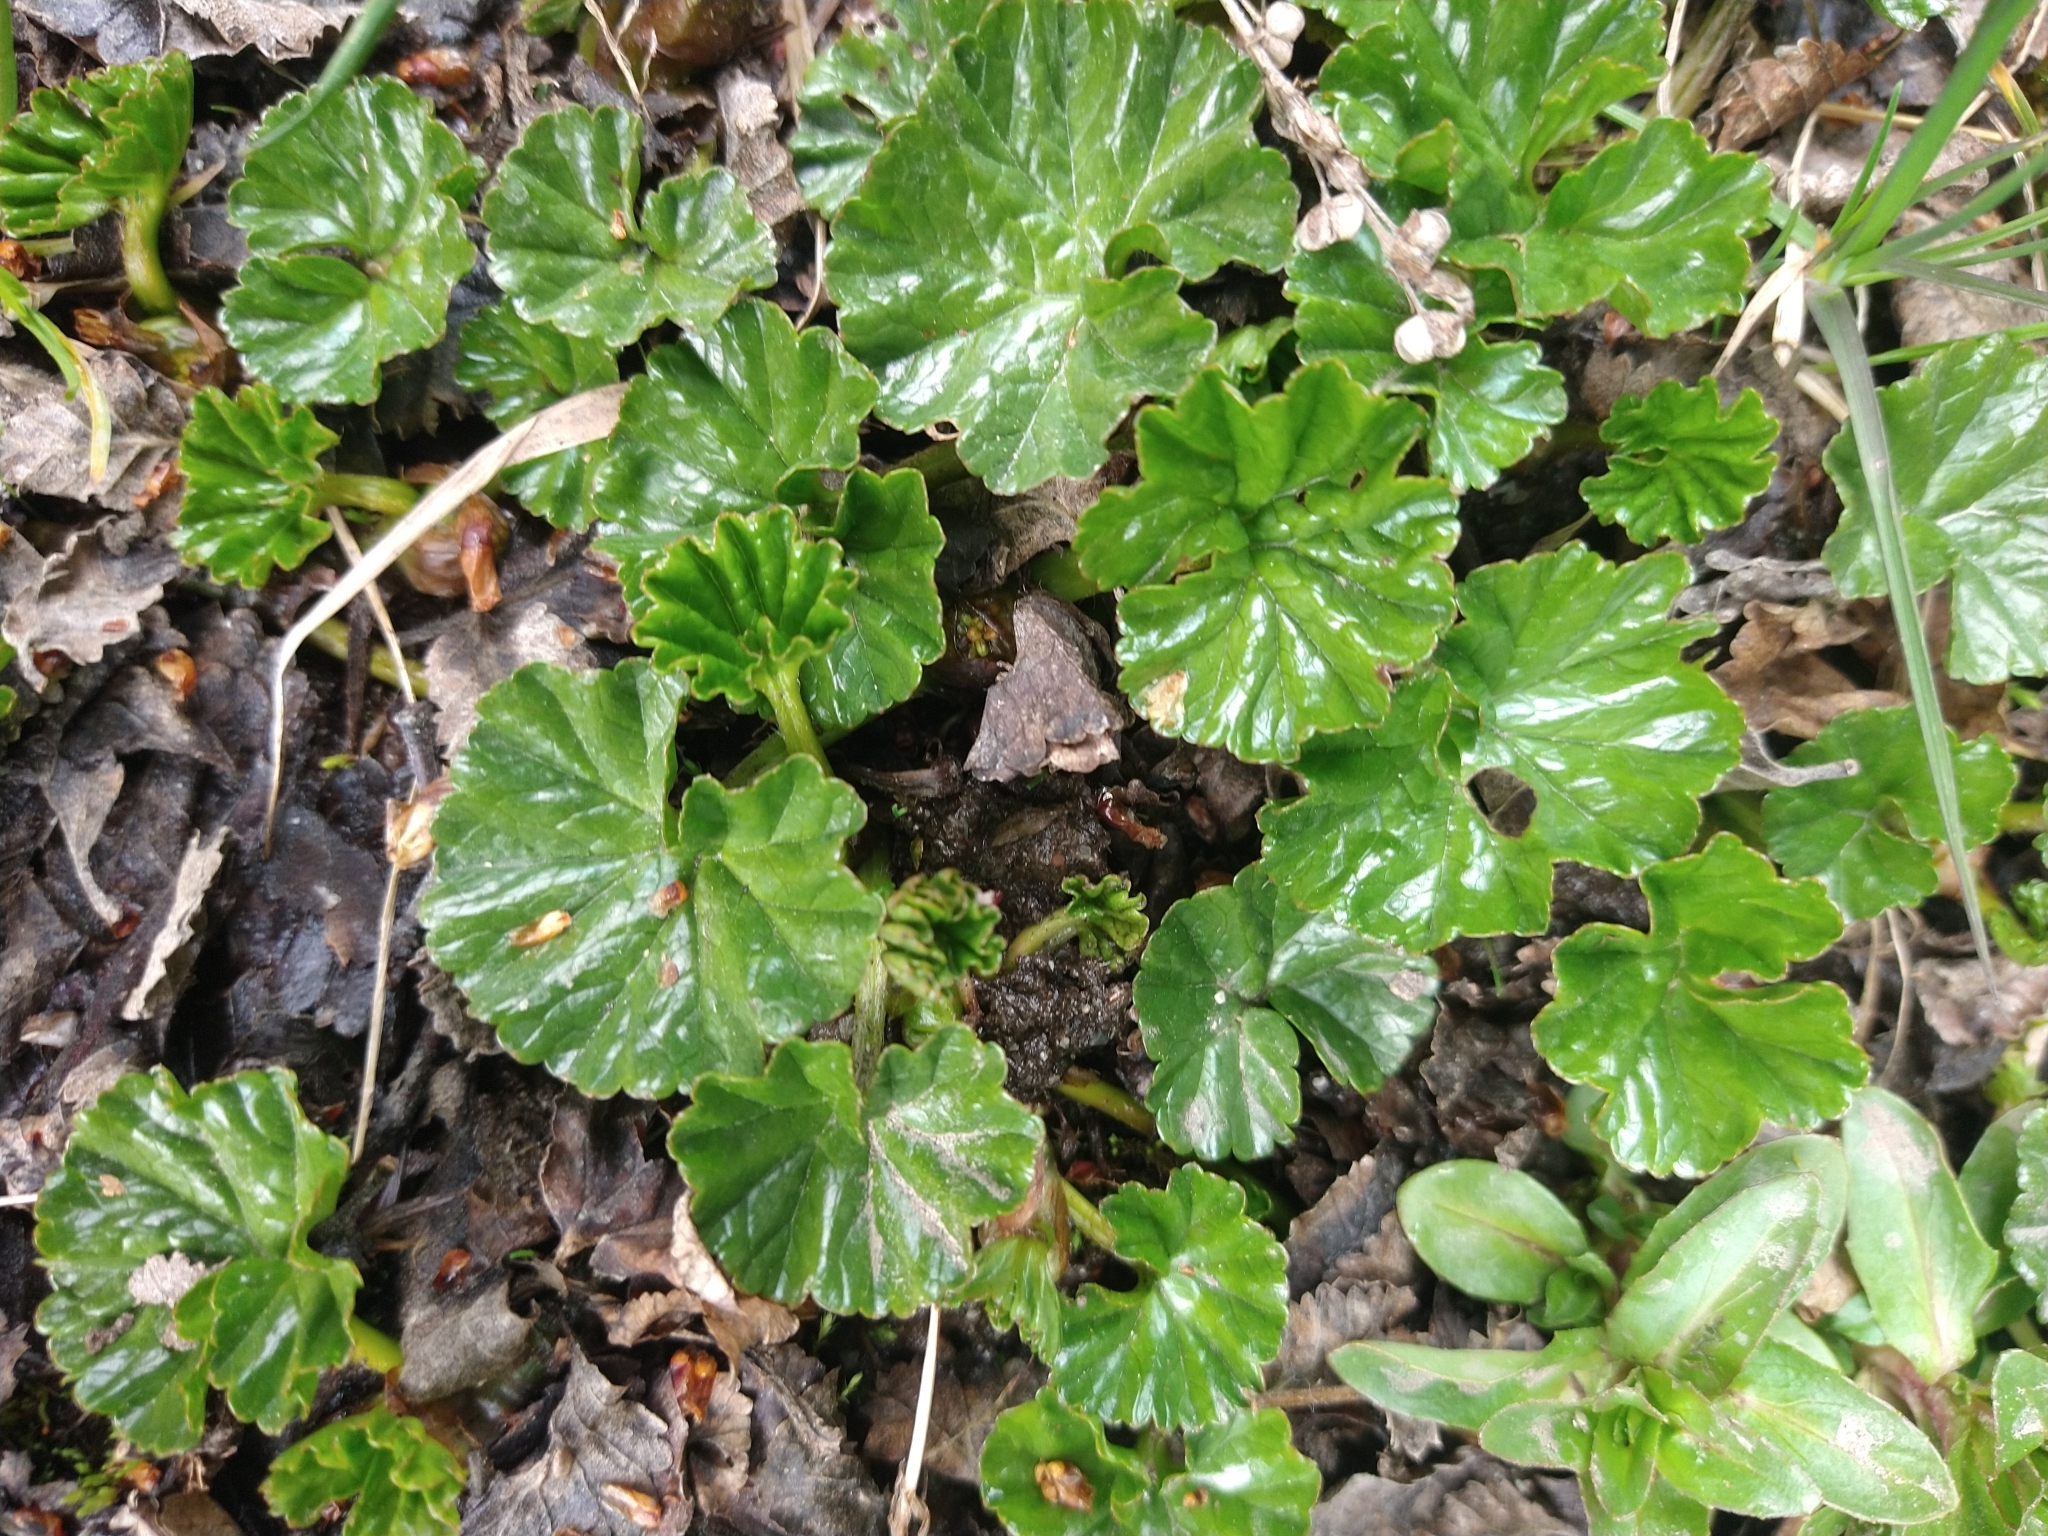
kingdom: Plantae
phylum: Tracheophyta
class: Magnoliopsida
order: Gunnerales
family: Gunneraceae
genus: Gunnera
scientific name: Gunnera magellanica
